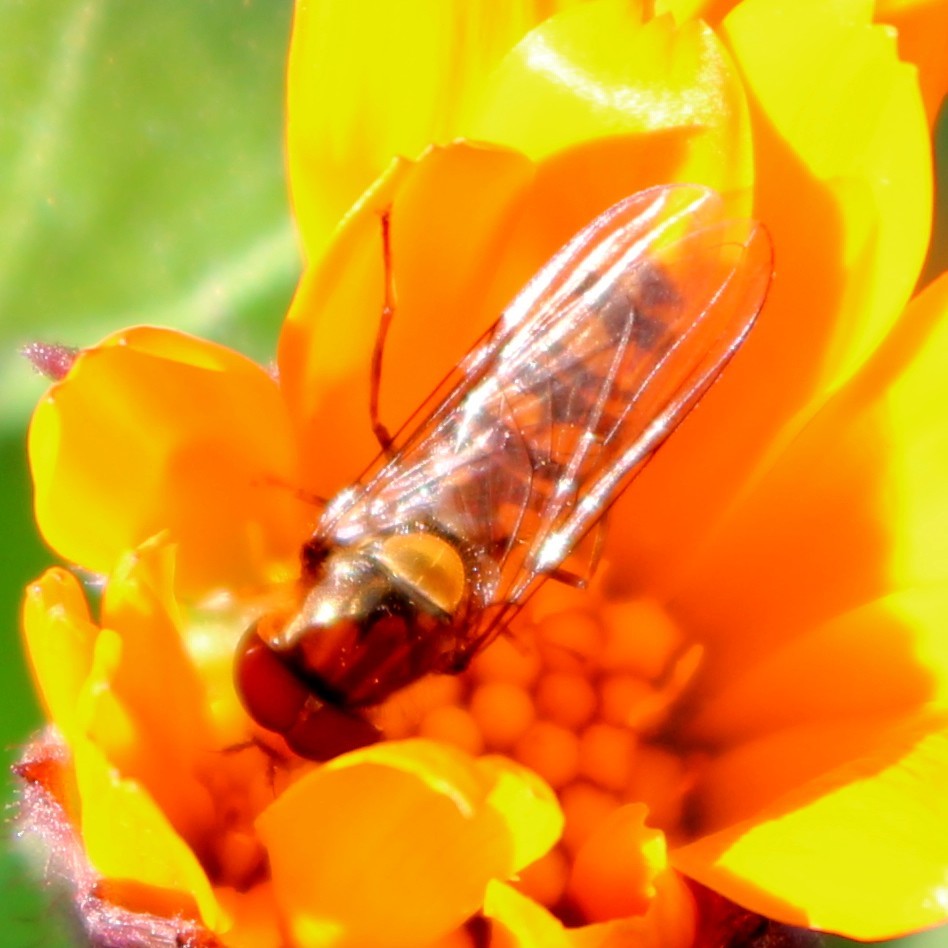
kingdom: Animalia
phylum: Arthropoda
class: Insecta
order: Diptera
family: Syrphidae
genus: Episyrphus
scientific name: Episyrphus balteatus
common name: Marmalade hoverfly
